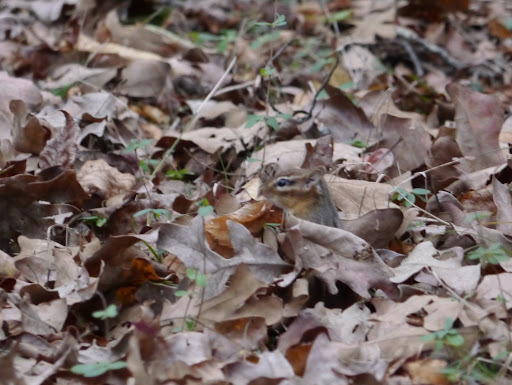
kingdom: Animalia
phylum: Chordata
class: Mammalia
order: Rodentia
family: Sciuridae
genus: Tamias
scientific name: Tamias striatus
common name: Eastern chipmunk
